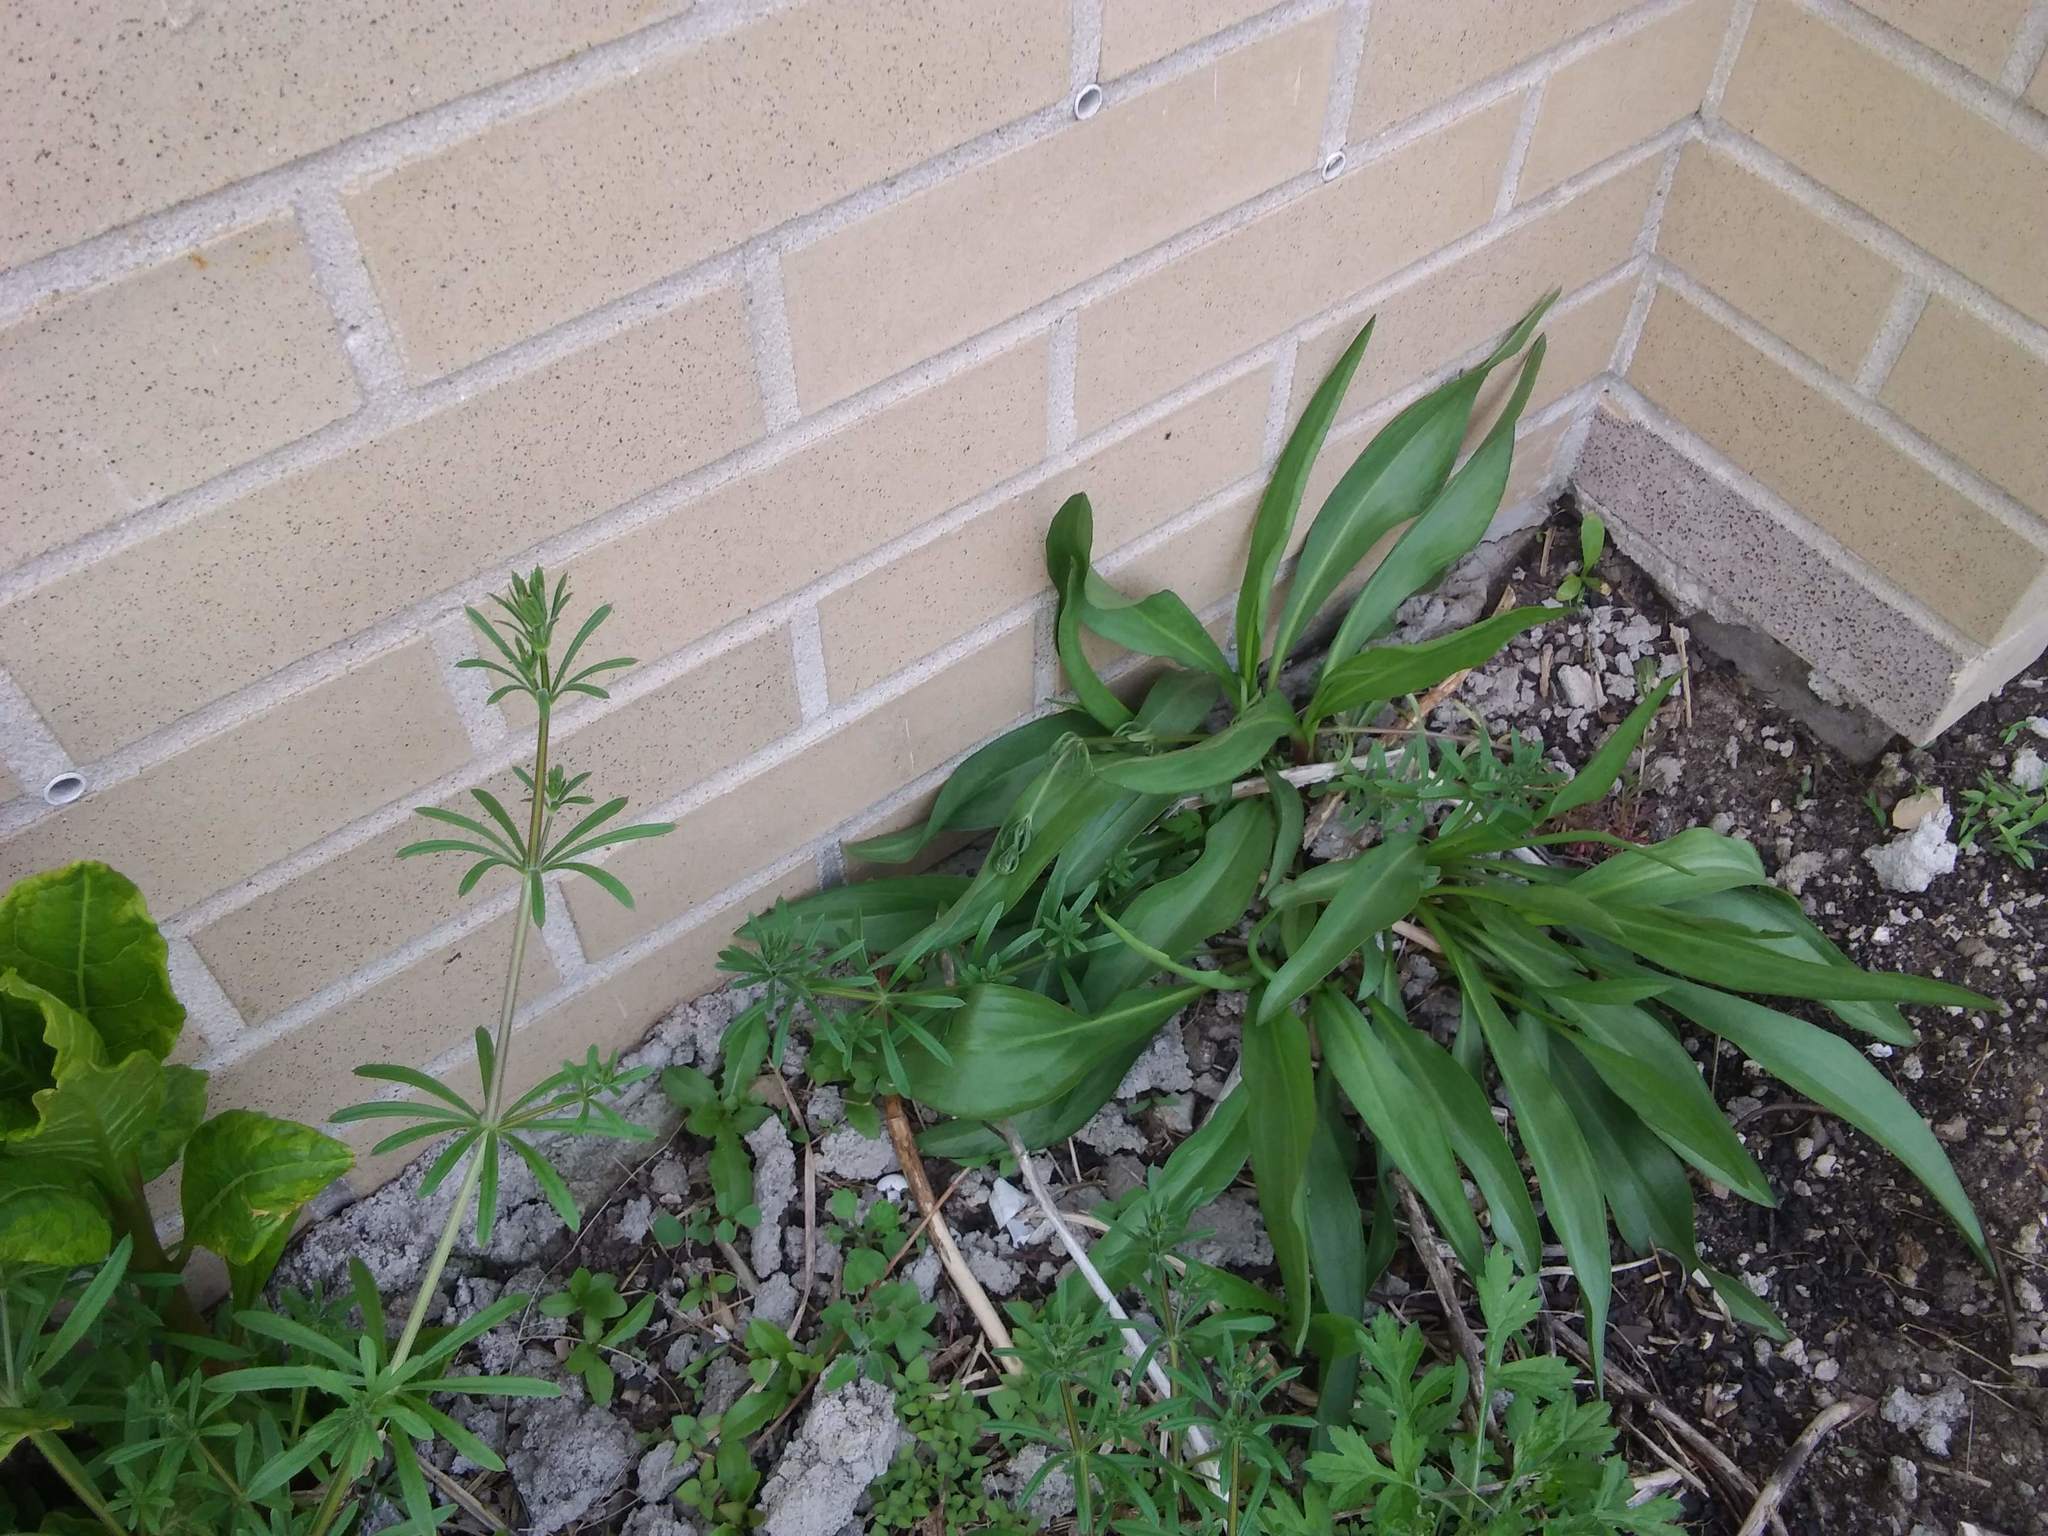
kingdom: Plantae
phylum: Tracheophyta
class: Magnoliopsida
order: Asterales
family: Asteraceae
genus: Solidago
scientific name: Solidago sempervirens
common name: Salt-marsh goldenrod
